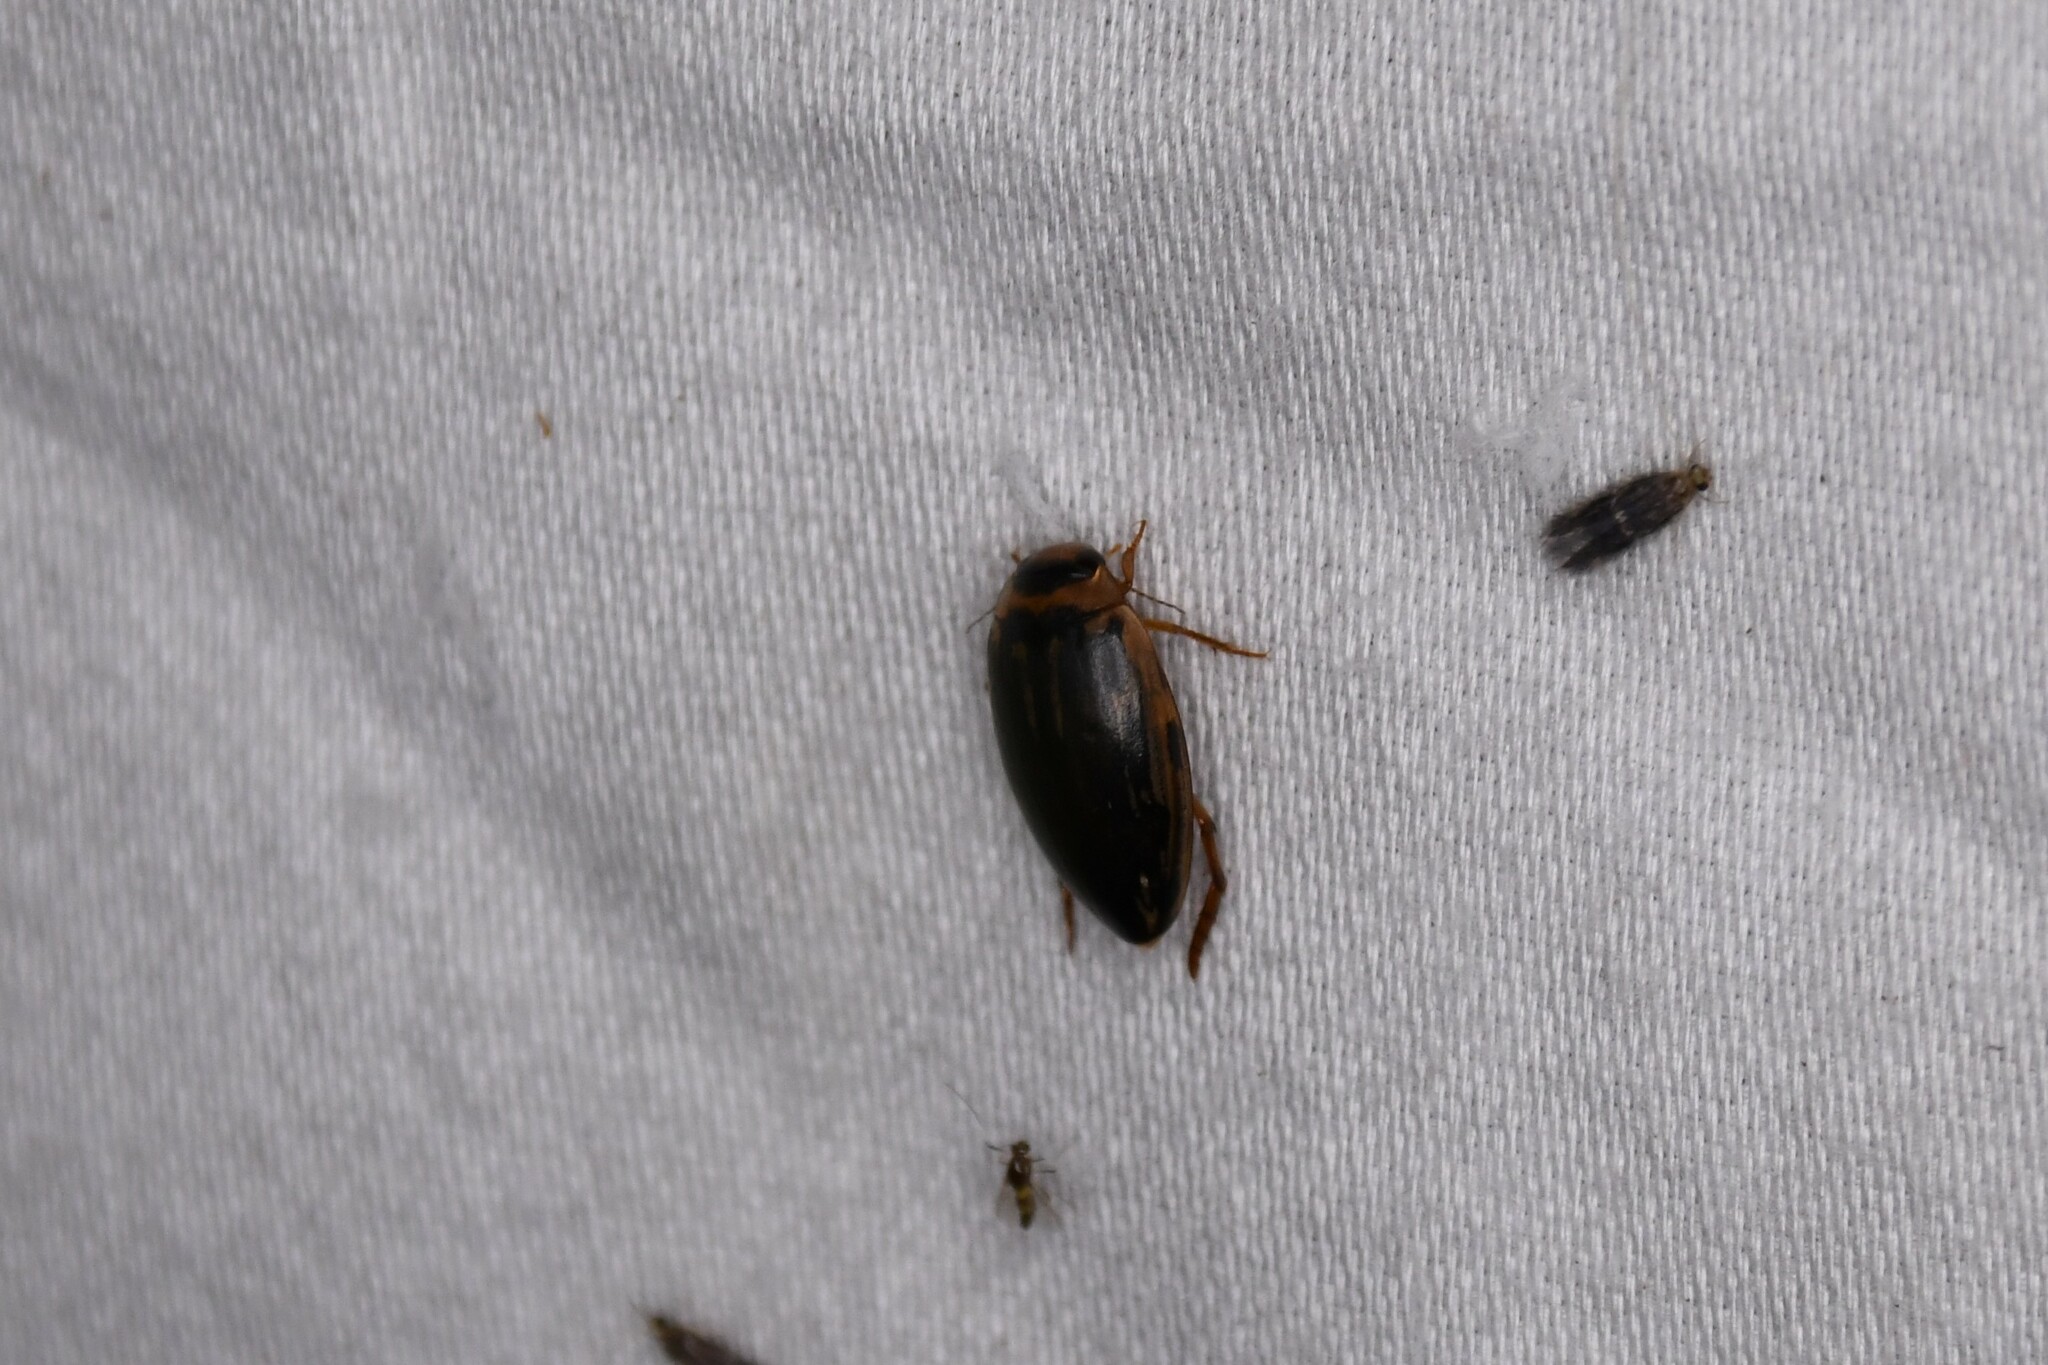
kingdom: Animalia
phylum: Arthropoda
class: Insecta
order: Coleoptera
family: Dytiscidae
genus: Coptotomus
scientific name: Coptotomus longulus
